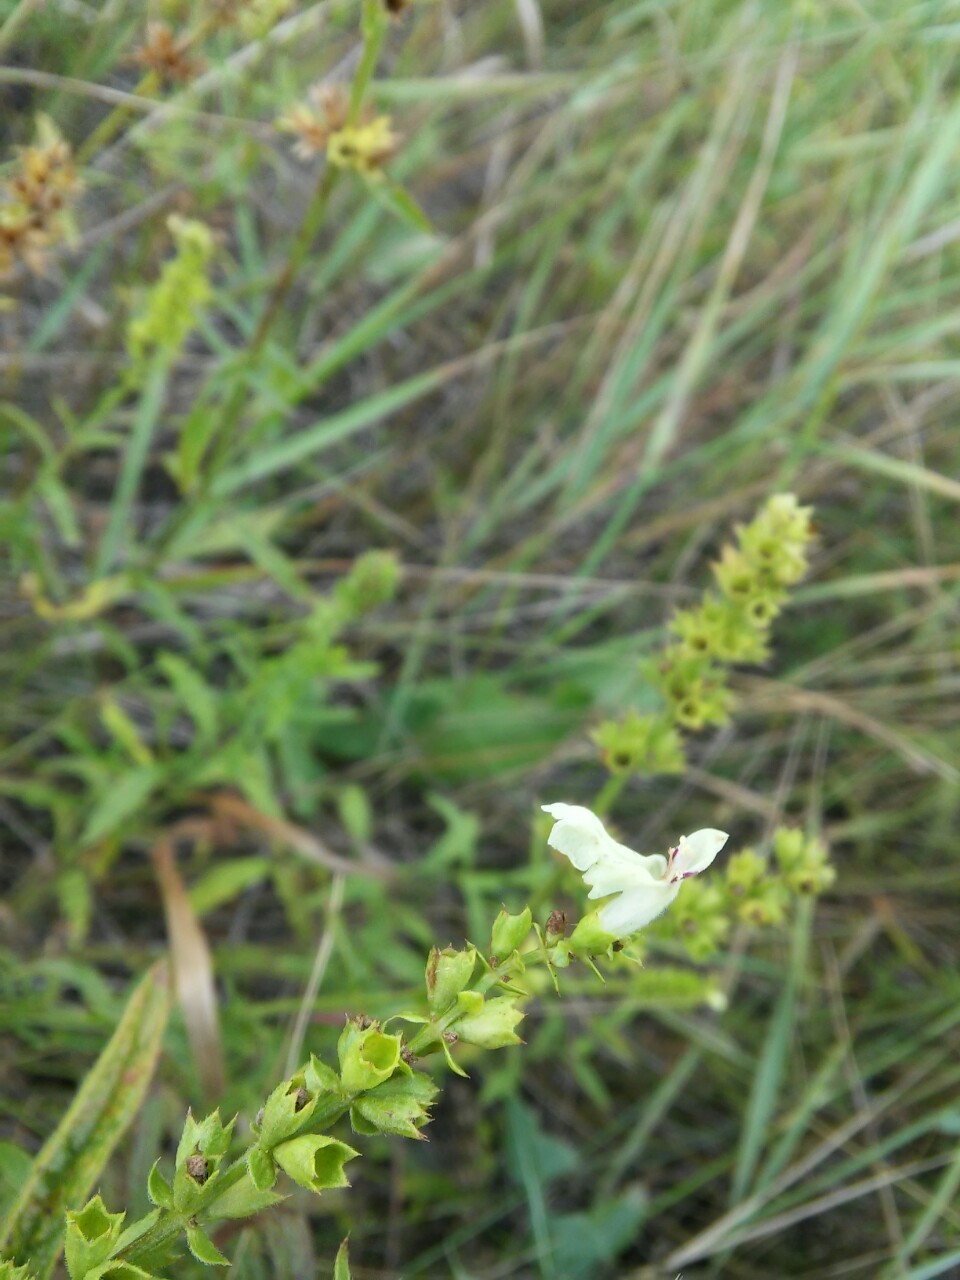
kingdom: Plantae
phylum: Tracheophyta
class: Magnoliopsida
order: Lamiales
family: Lamiaceae
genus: Stachys
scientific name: Stachys recta
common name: Perennial yellow-woundwort
